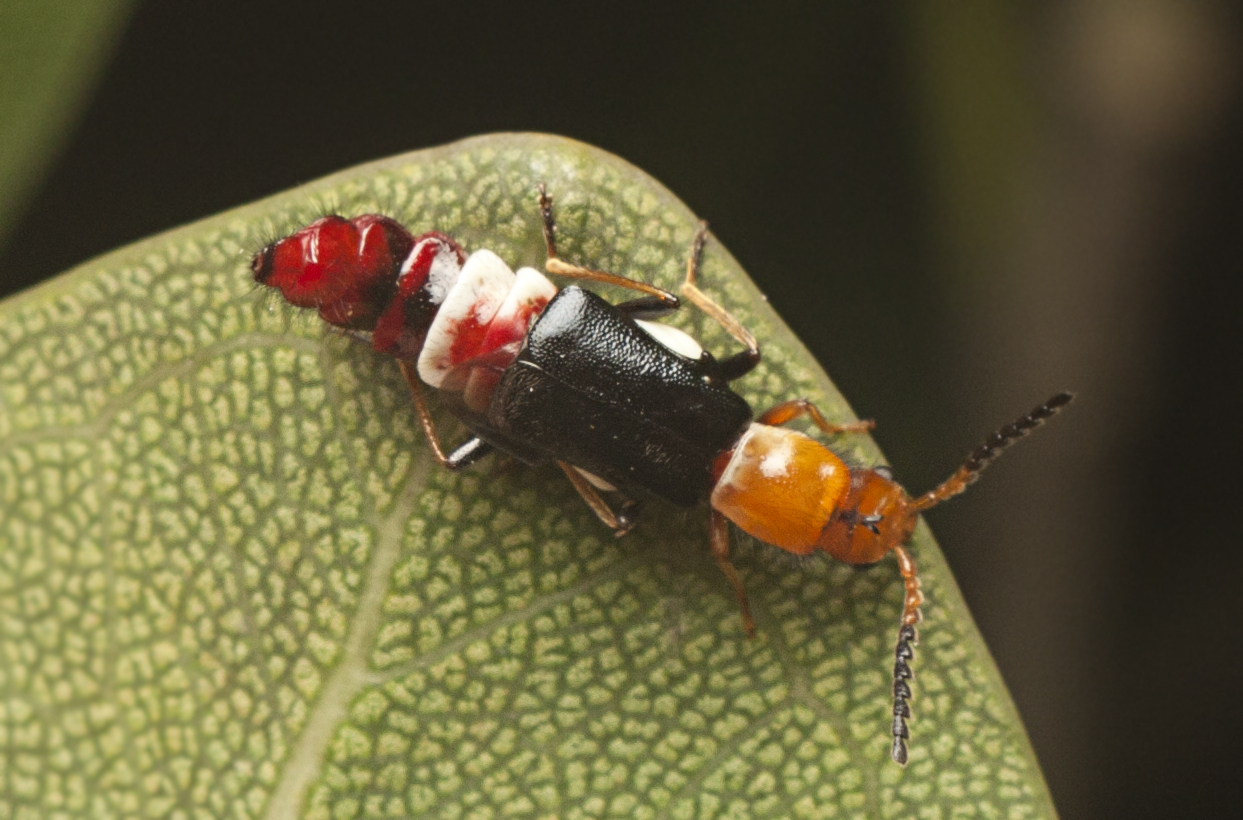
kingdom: Animalia
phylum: Arthropoda
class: Insecta
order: Coleoptera
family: Melyridae
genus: Carphurus
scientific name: Carphurus
